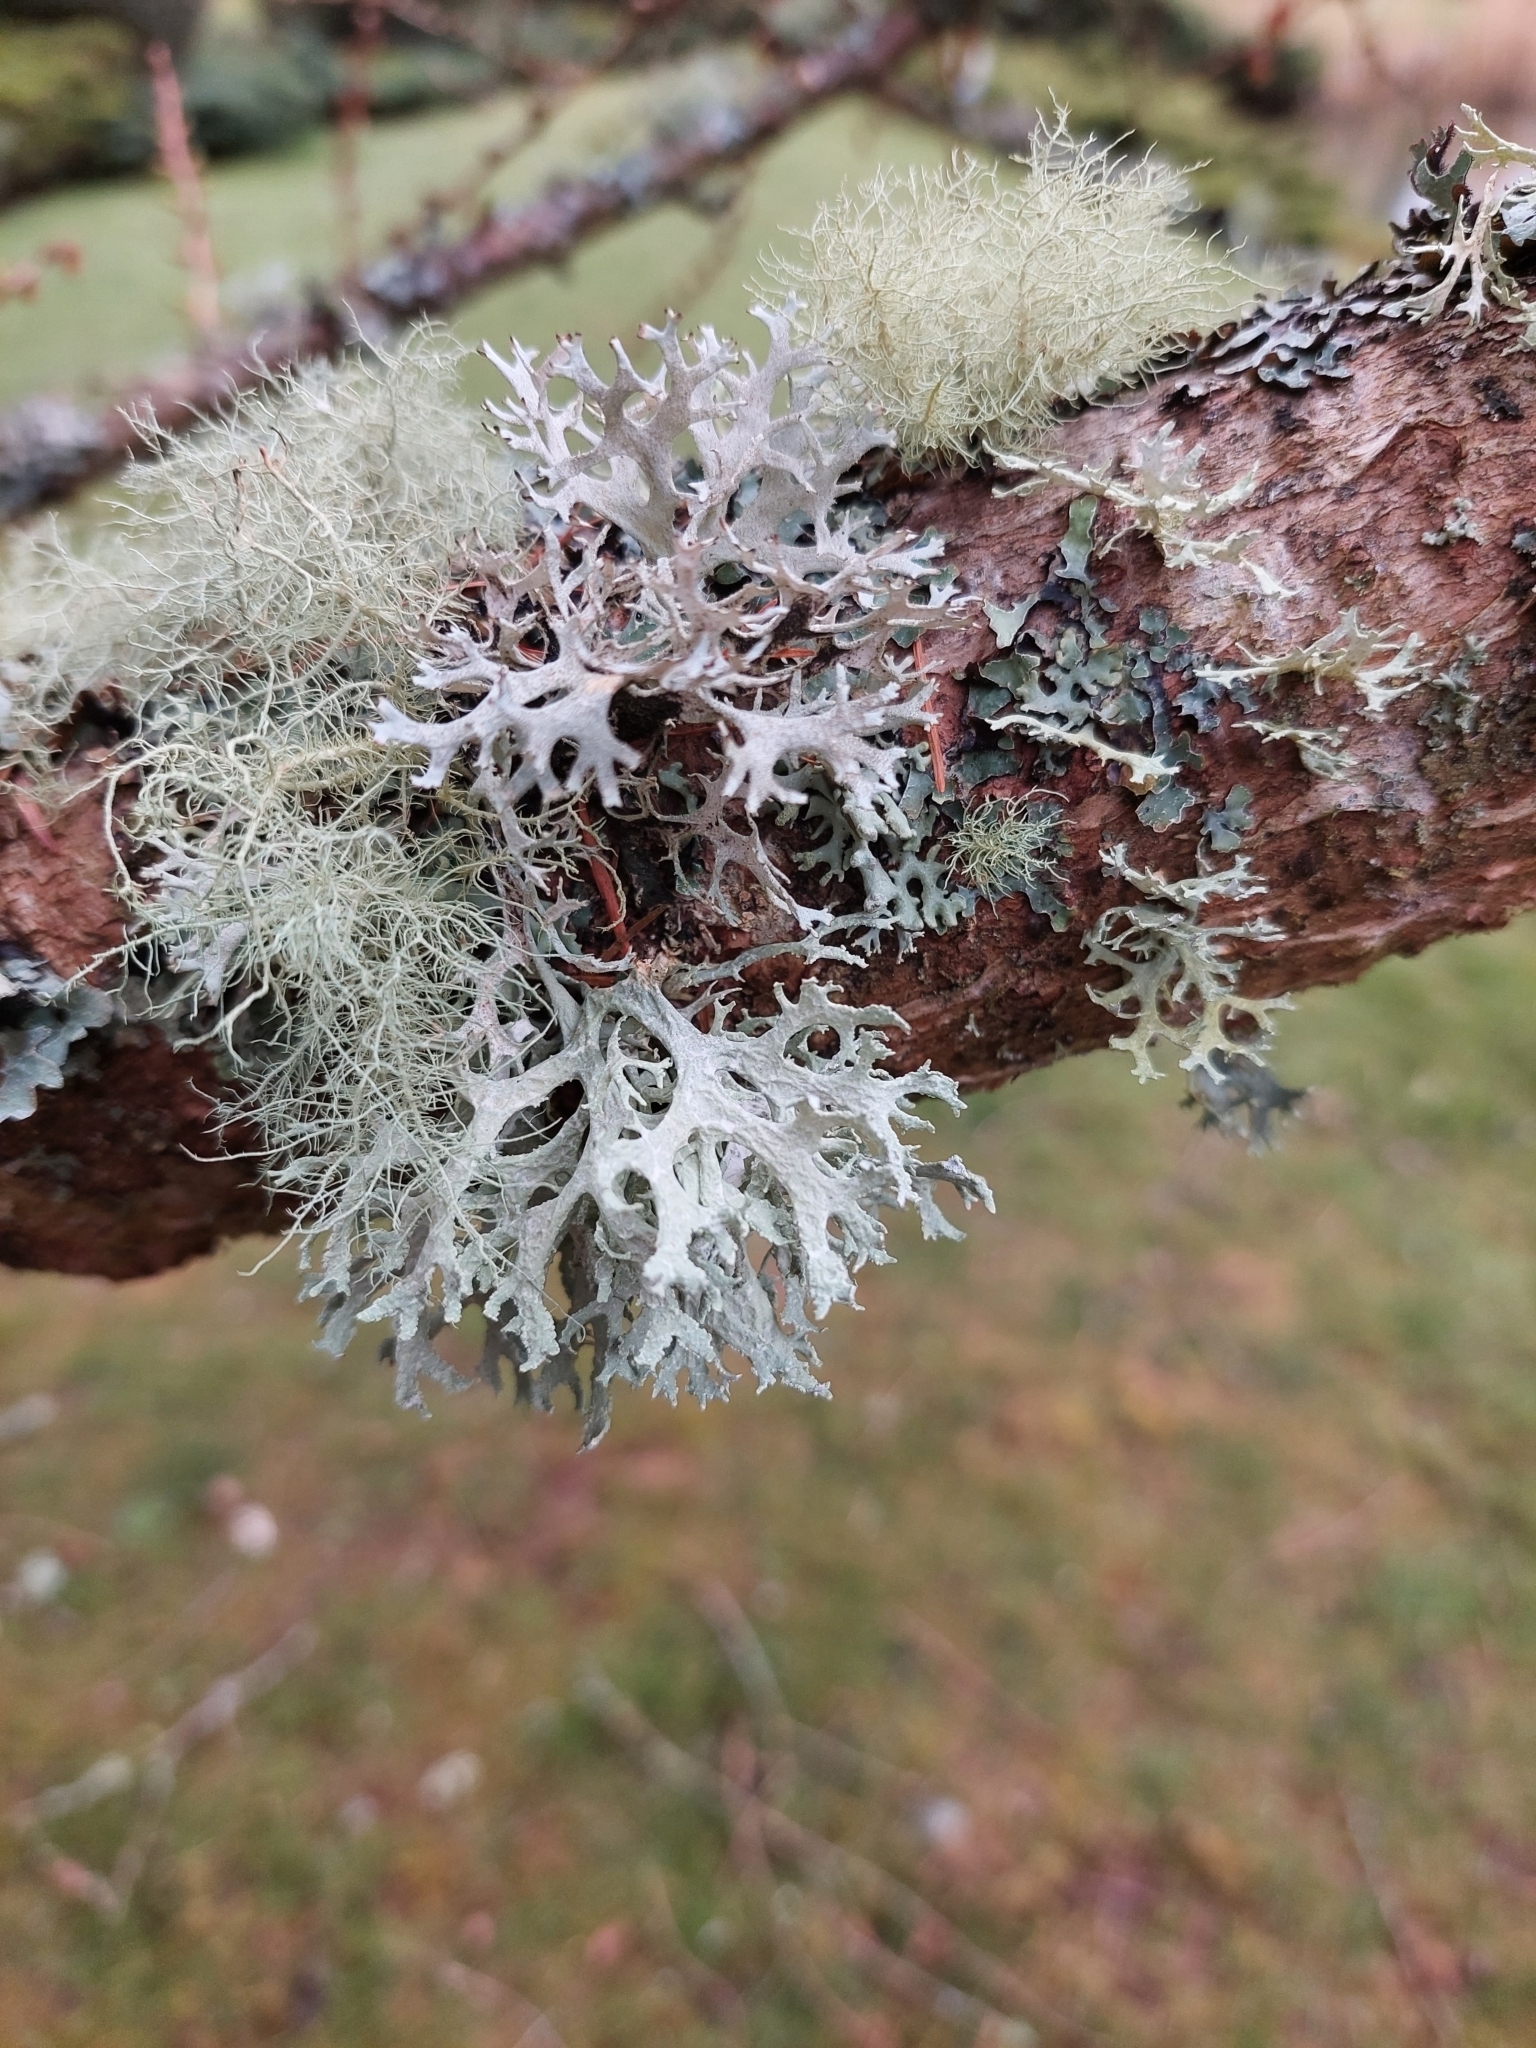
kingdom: Fungi
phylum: Ascomycota
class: Lecanoromycetes
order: Lecanorales
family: Parmeliaceae
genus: Evernia
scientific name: Evernia prunastri
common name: Oak moss
